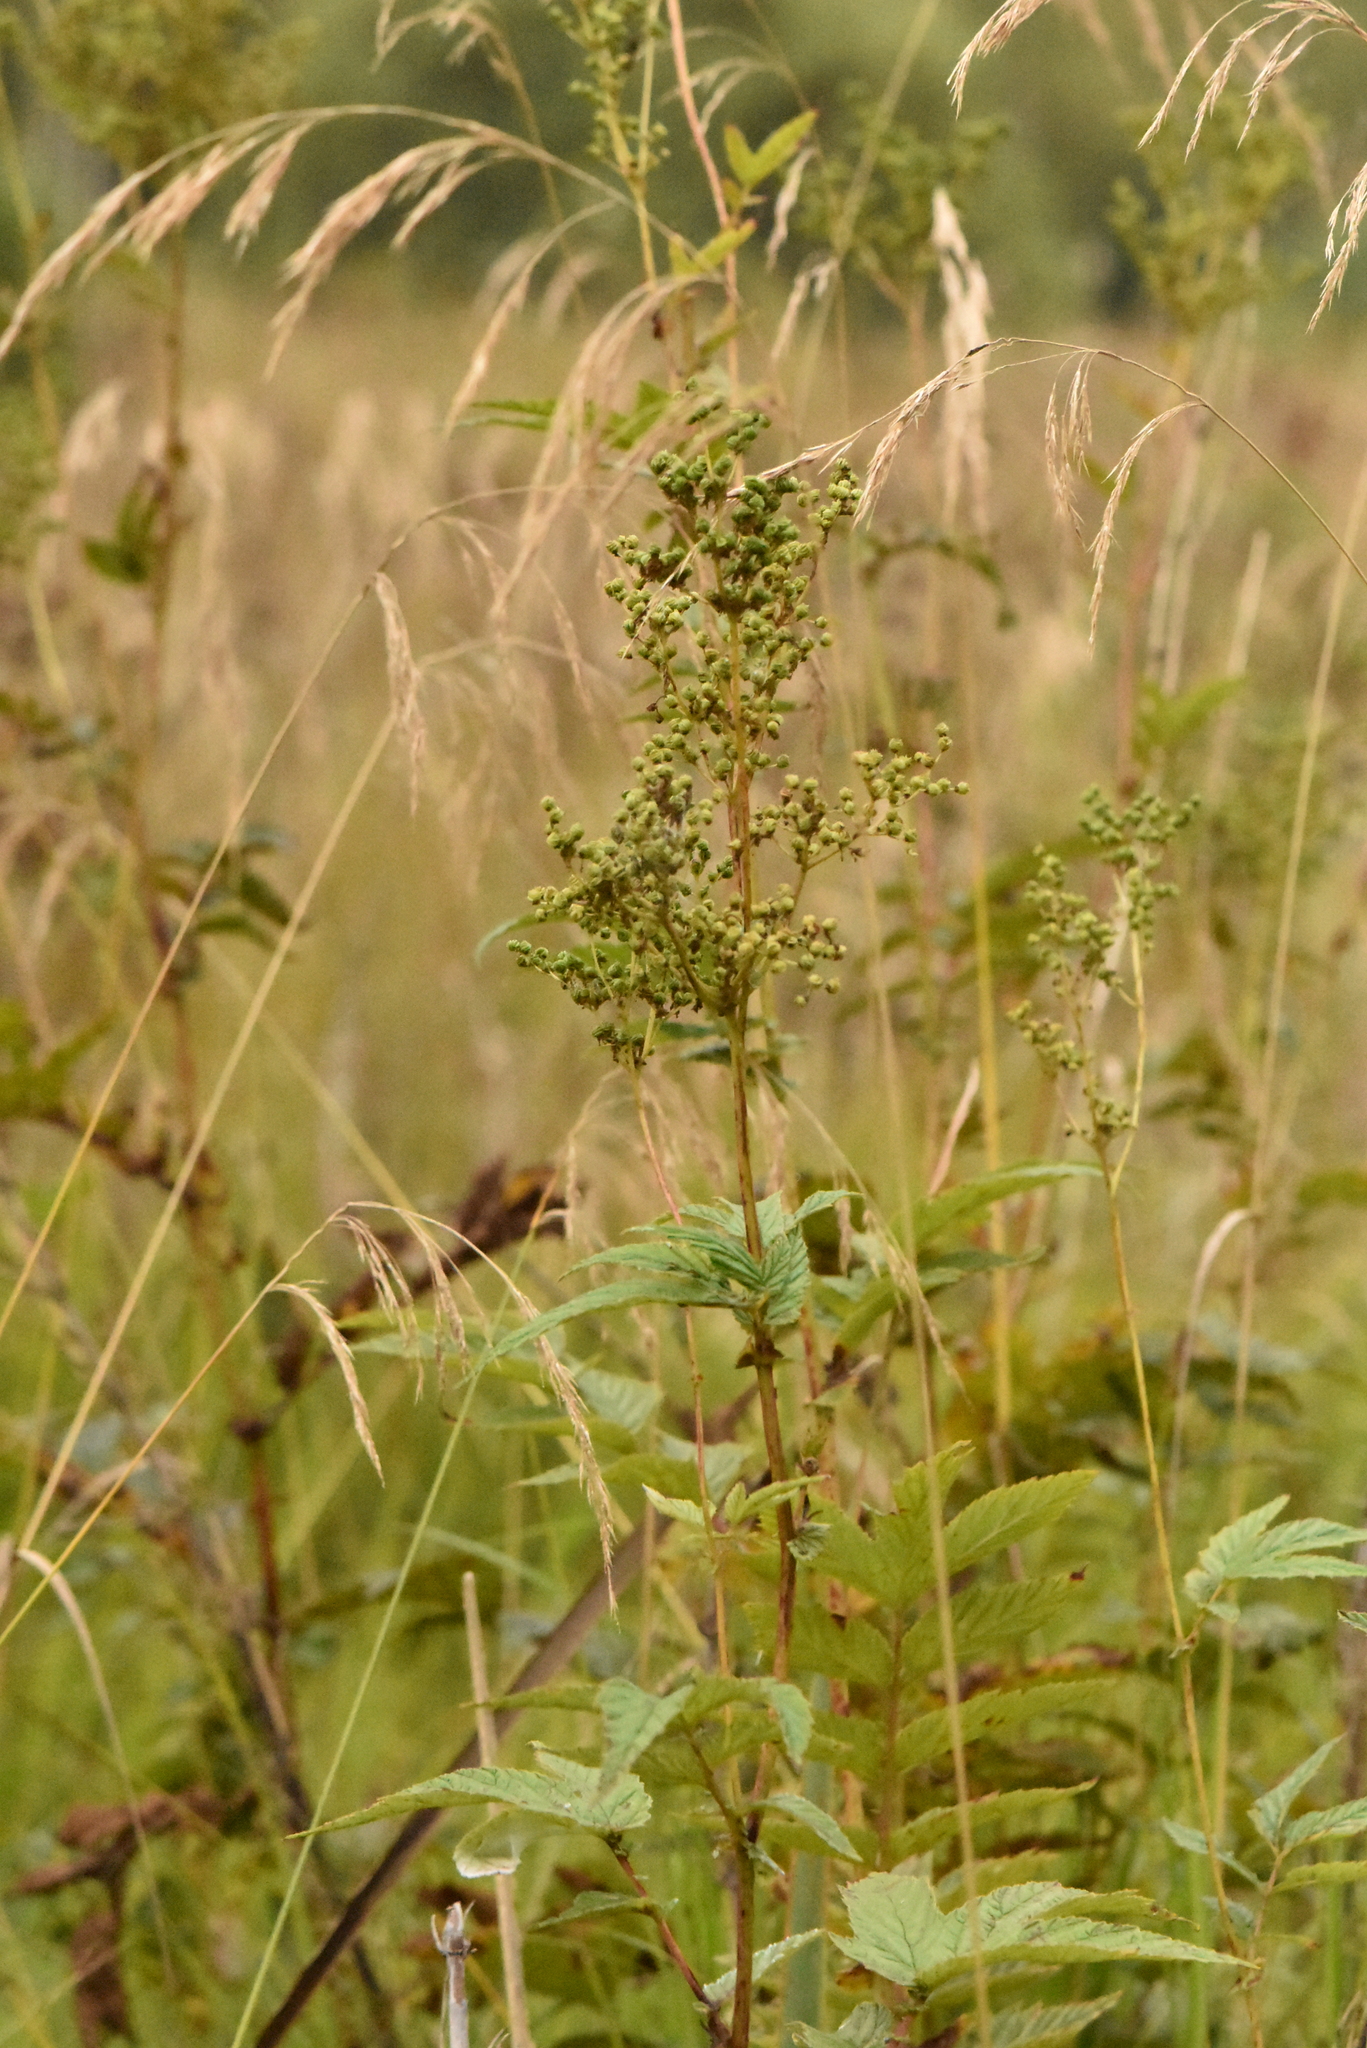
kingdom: Plantae
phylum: Tracheophyta
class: Magnoliopsida
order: Rosales
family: Rosaceae
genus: Filipendula
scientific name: Filipendula ulmaria
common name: Meadowsweet
